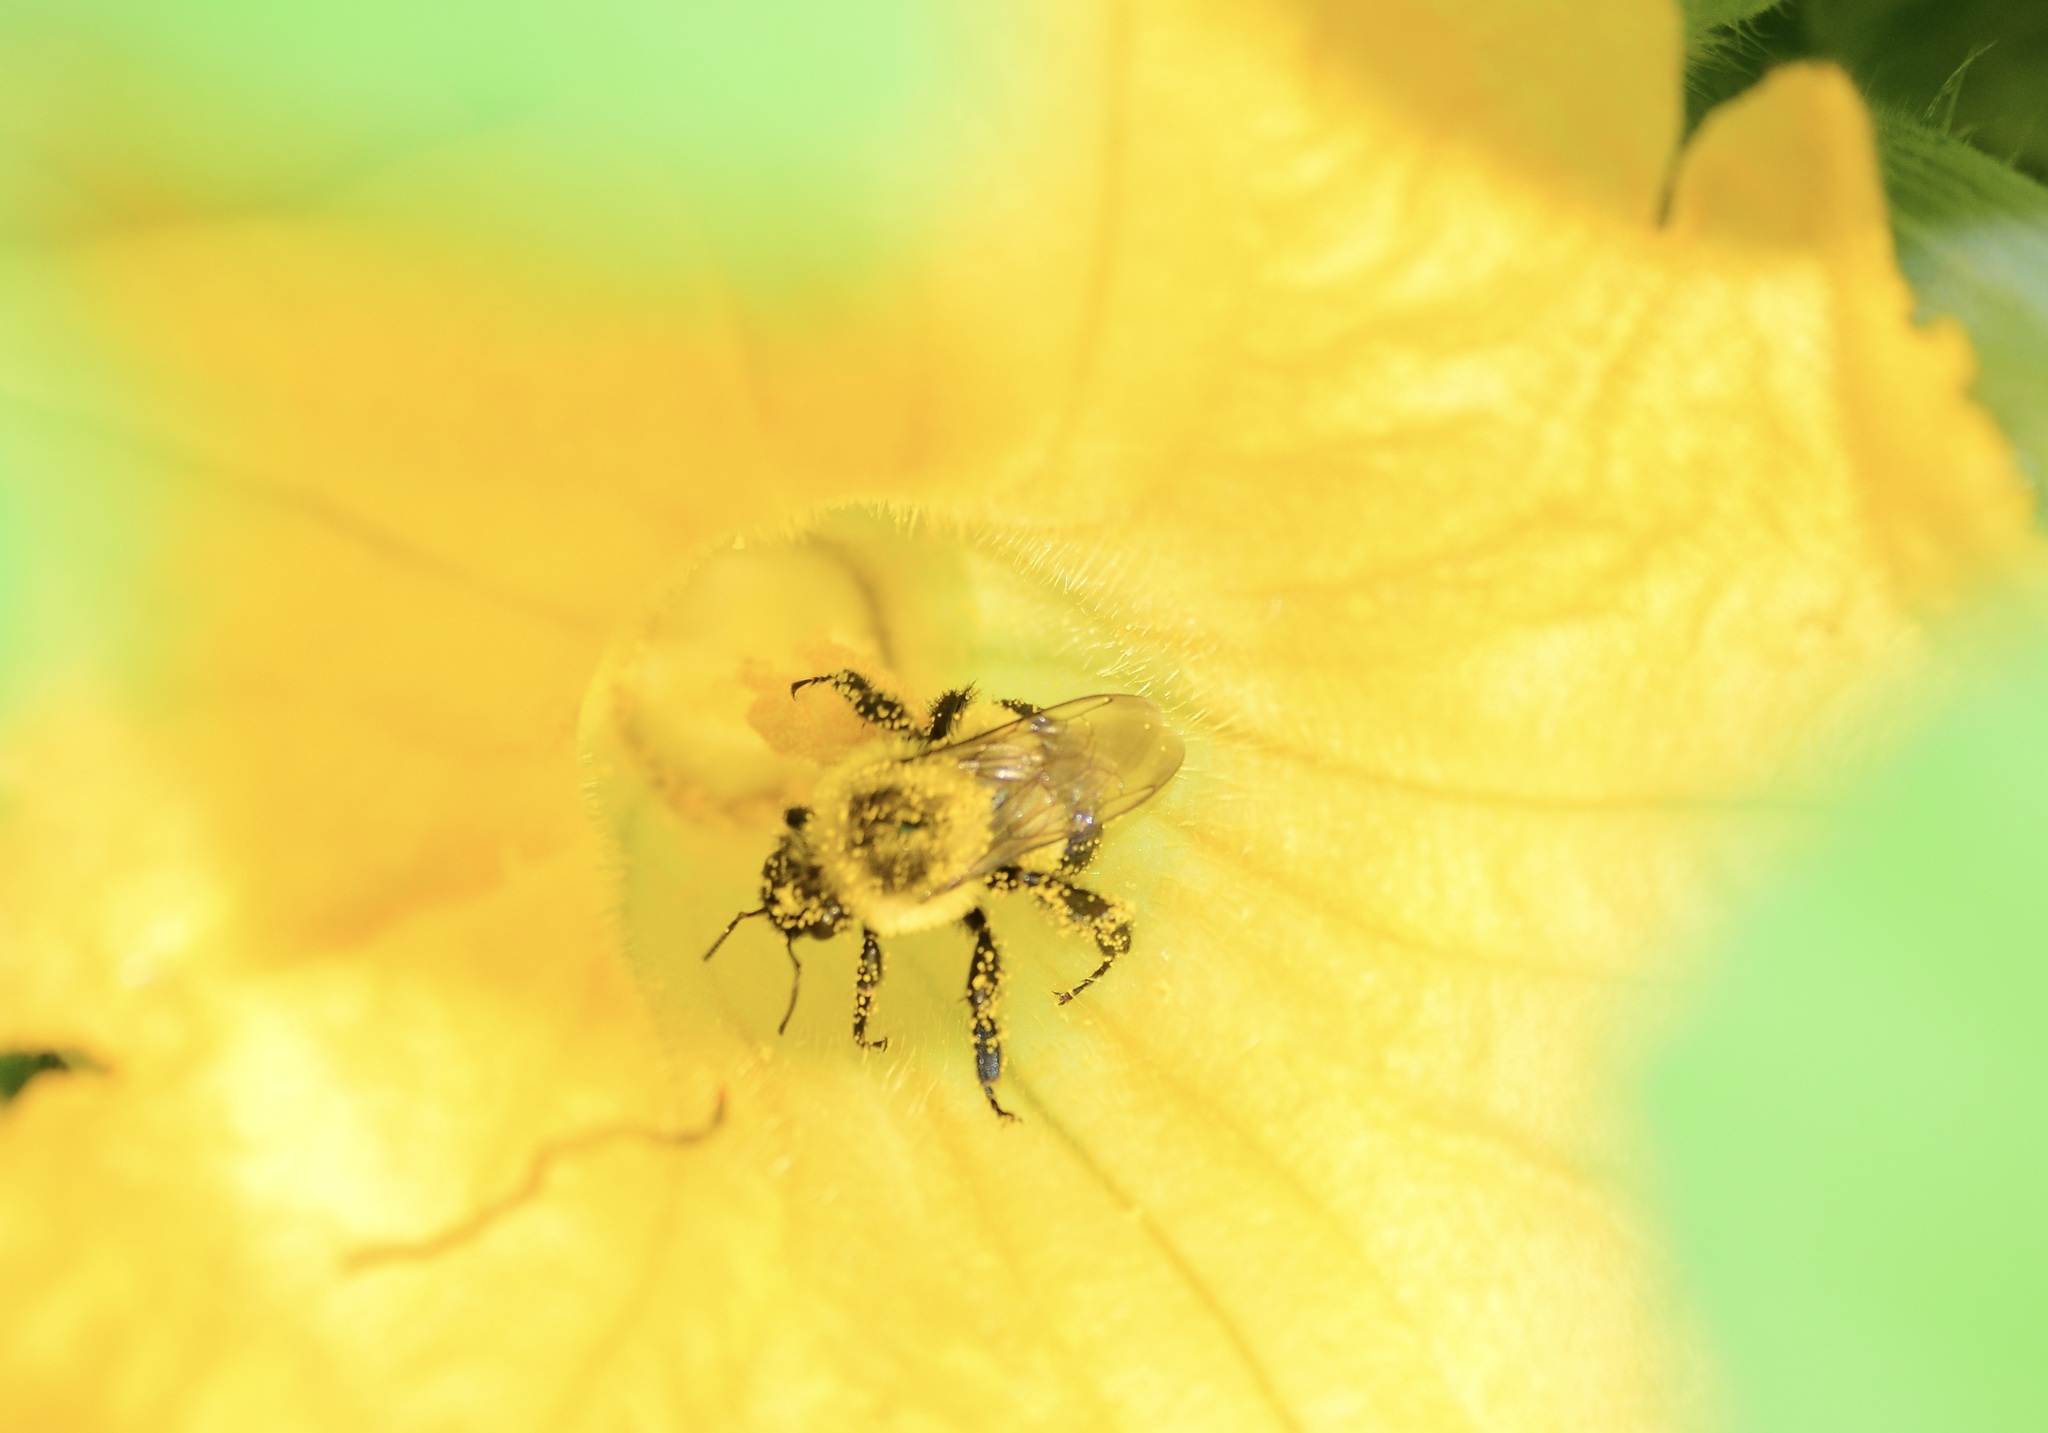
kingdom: Animalia
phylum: Arthropoda
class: Insecta
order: Hymenoptera
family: Apidae
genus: Bombus
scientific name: Bombus impatiens
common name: Common eastern bumble bee
